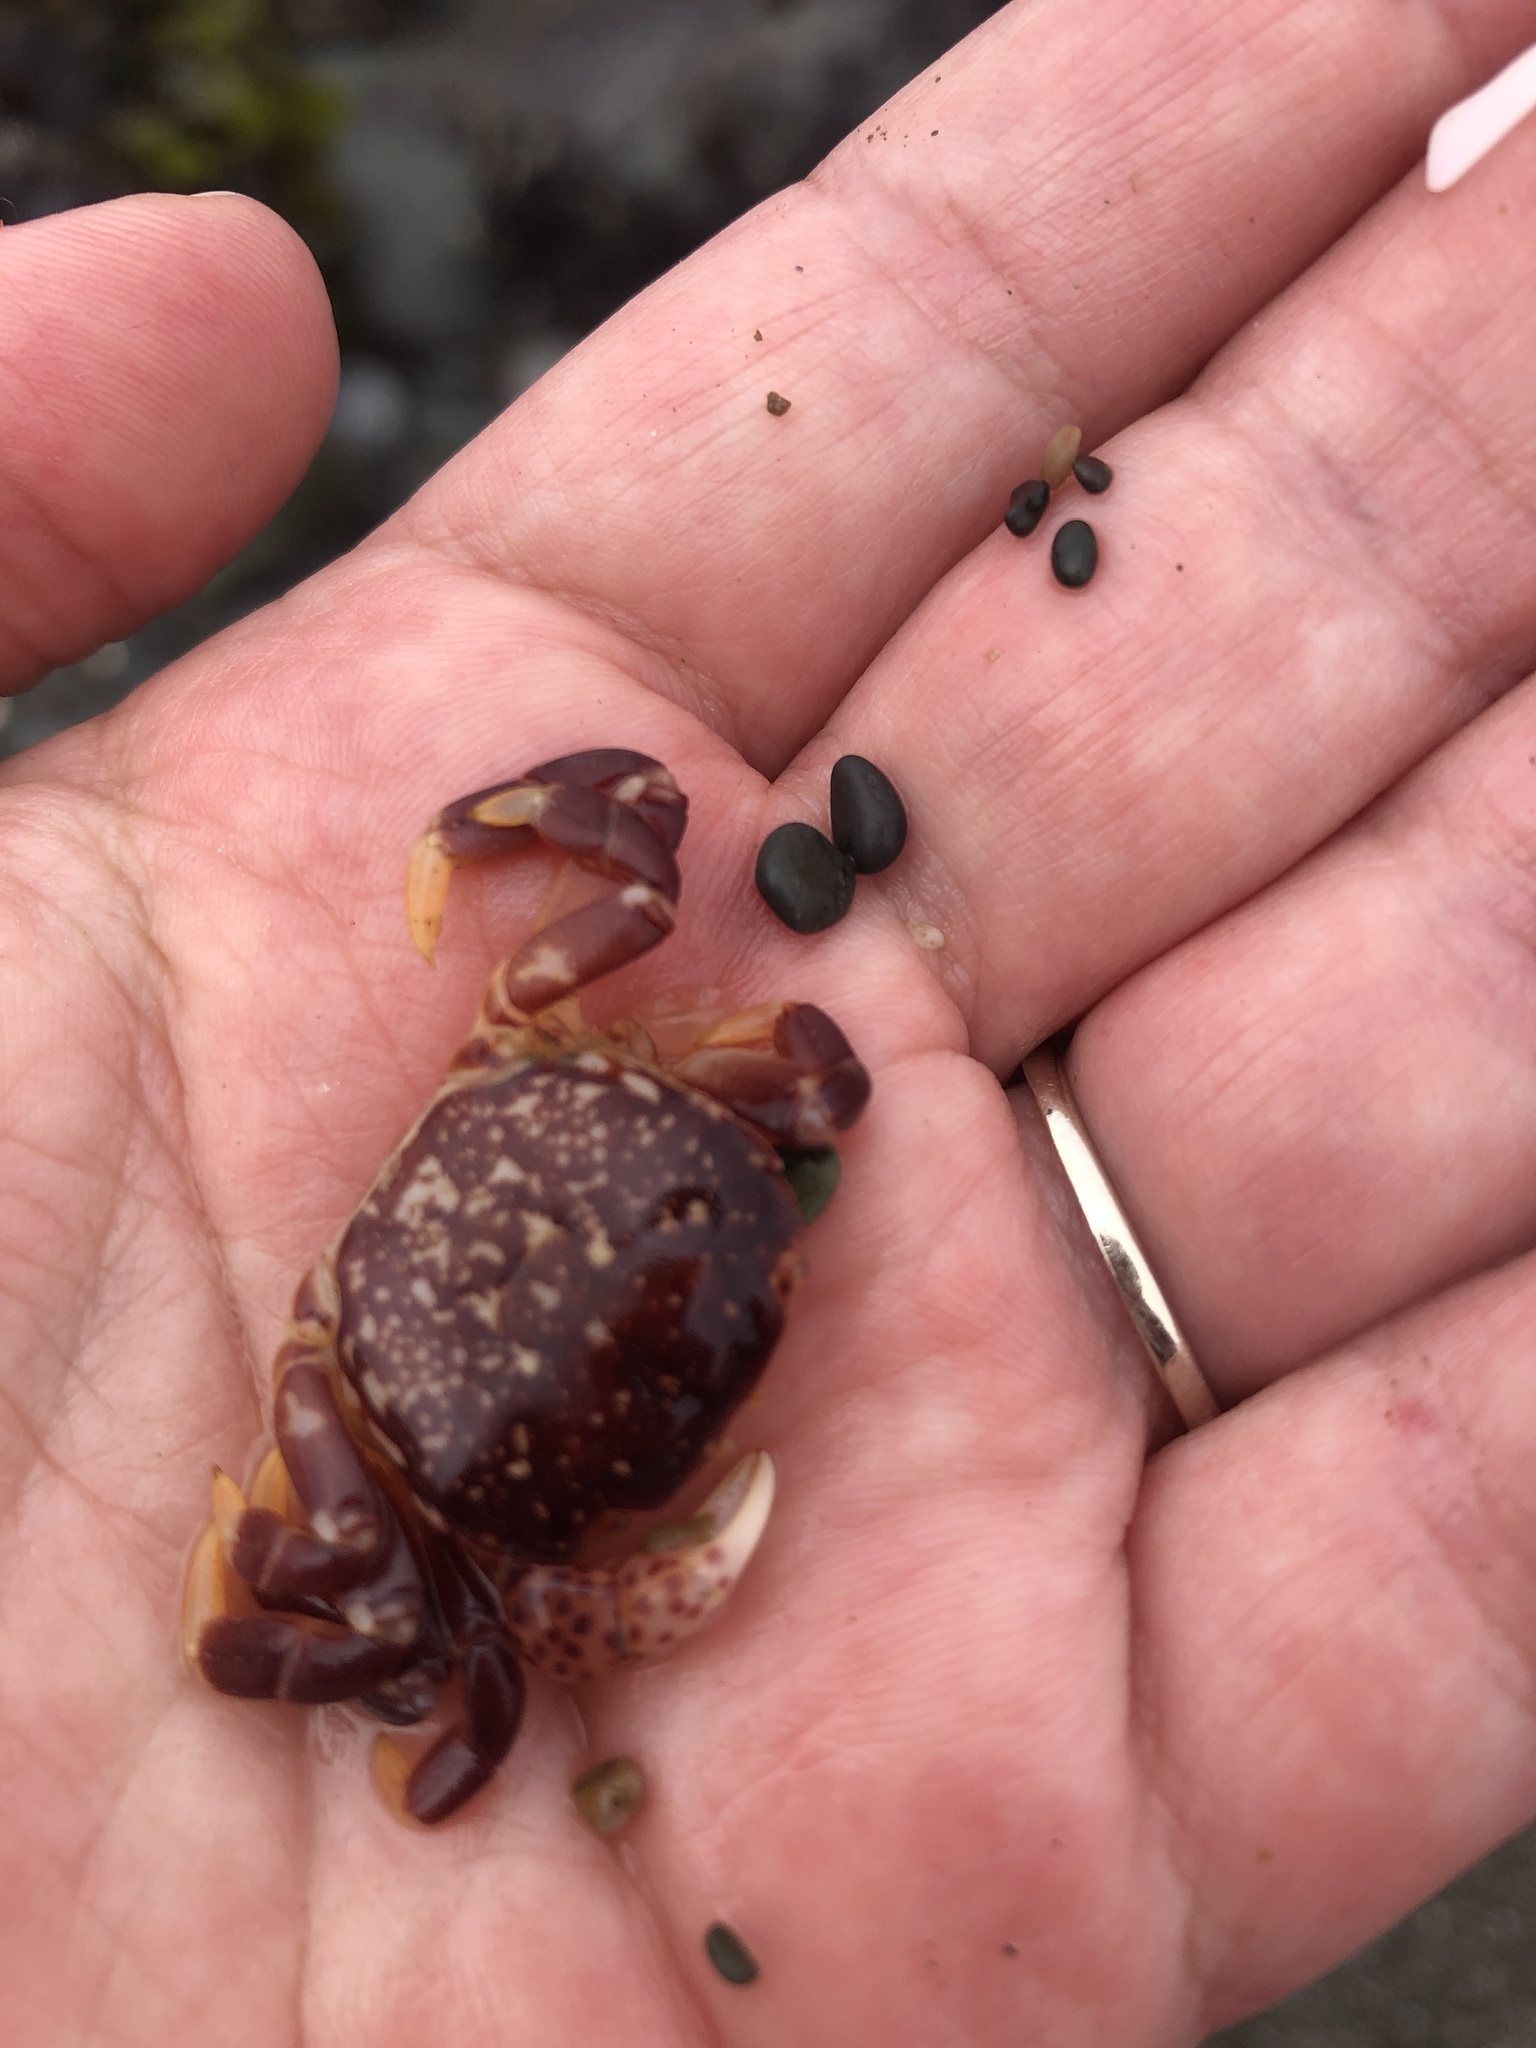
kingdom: Animalia
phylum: Arthropoda
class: Malacostraca
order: Decapoda
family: Varunidae
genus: Hemigrapsus
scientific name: Hemigrapsus nudus
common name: Purple shore crab
